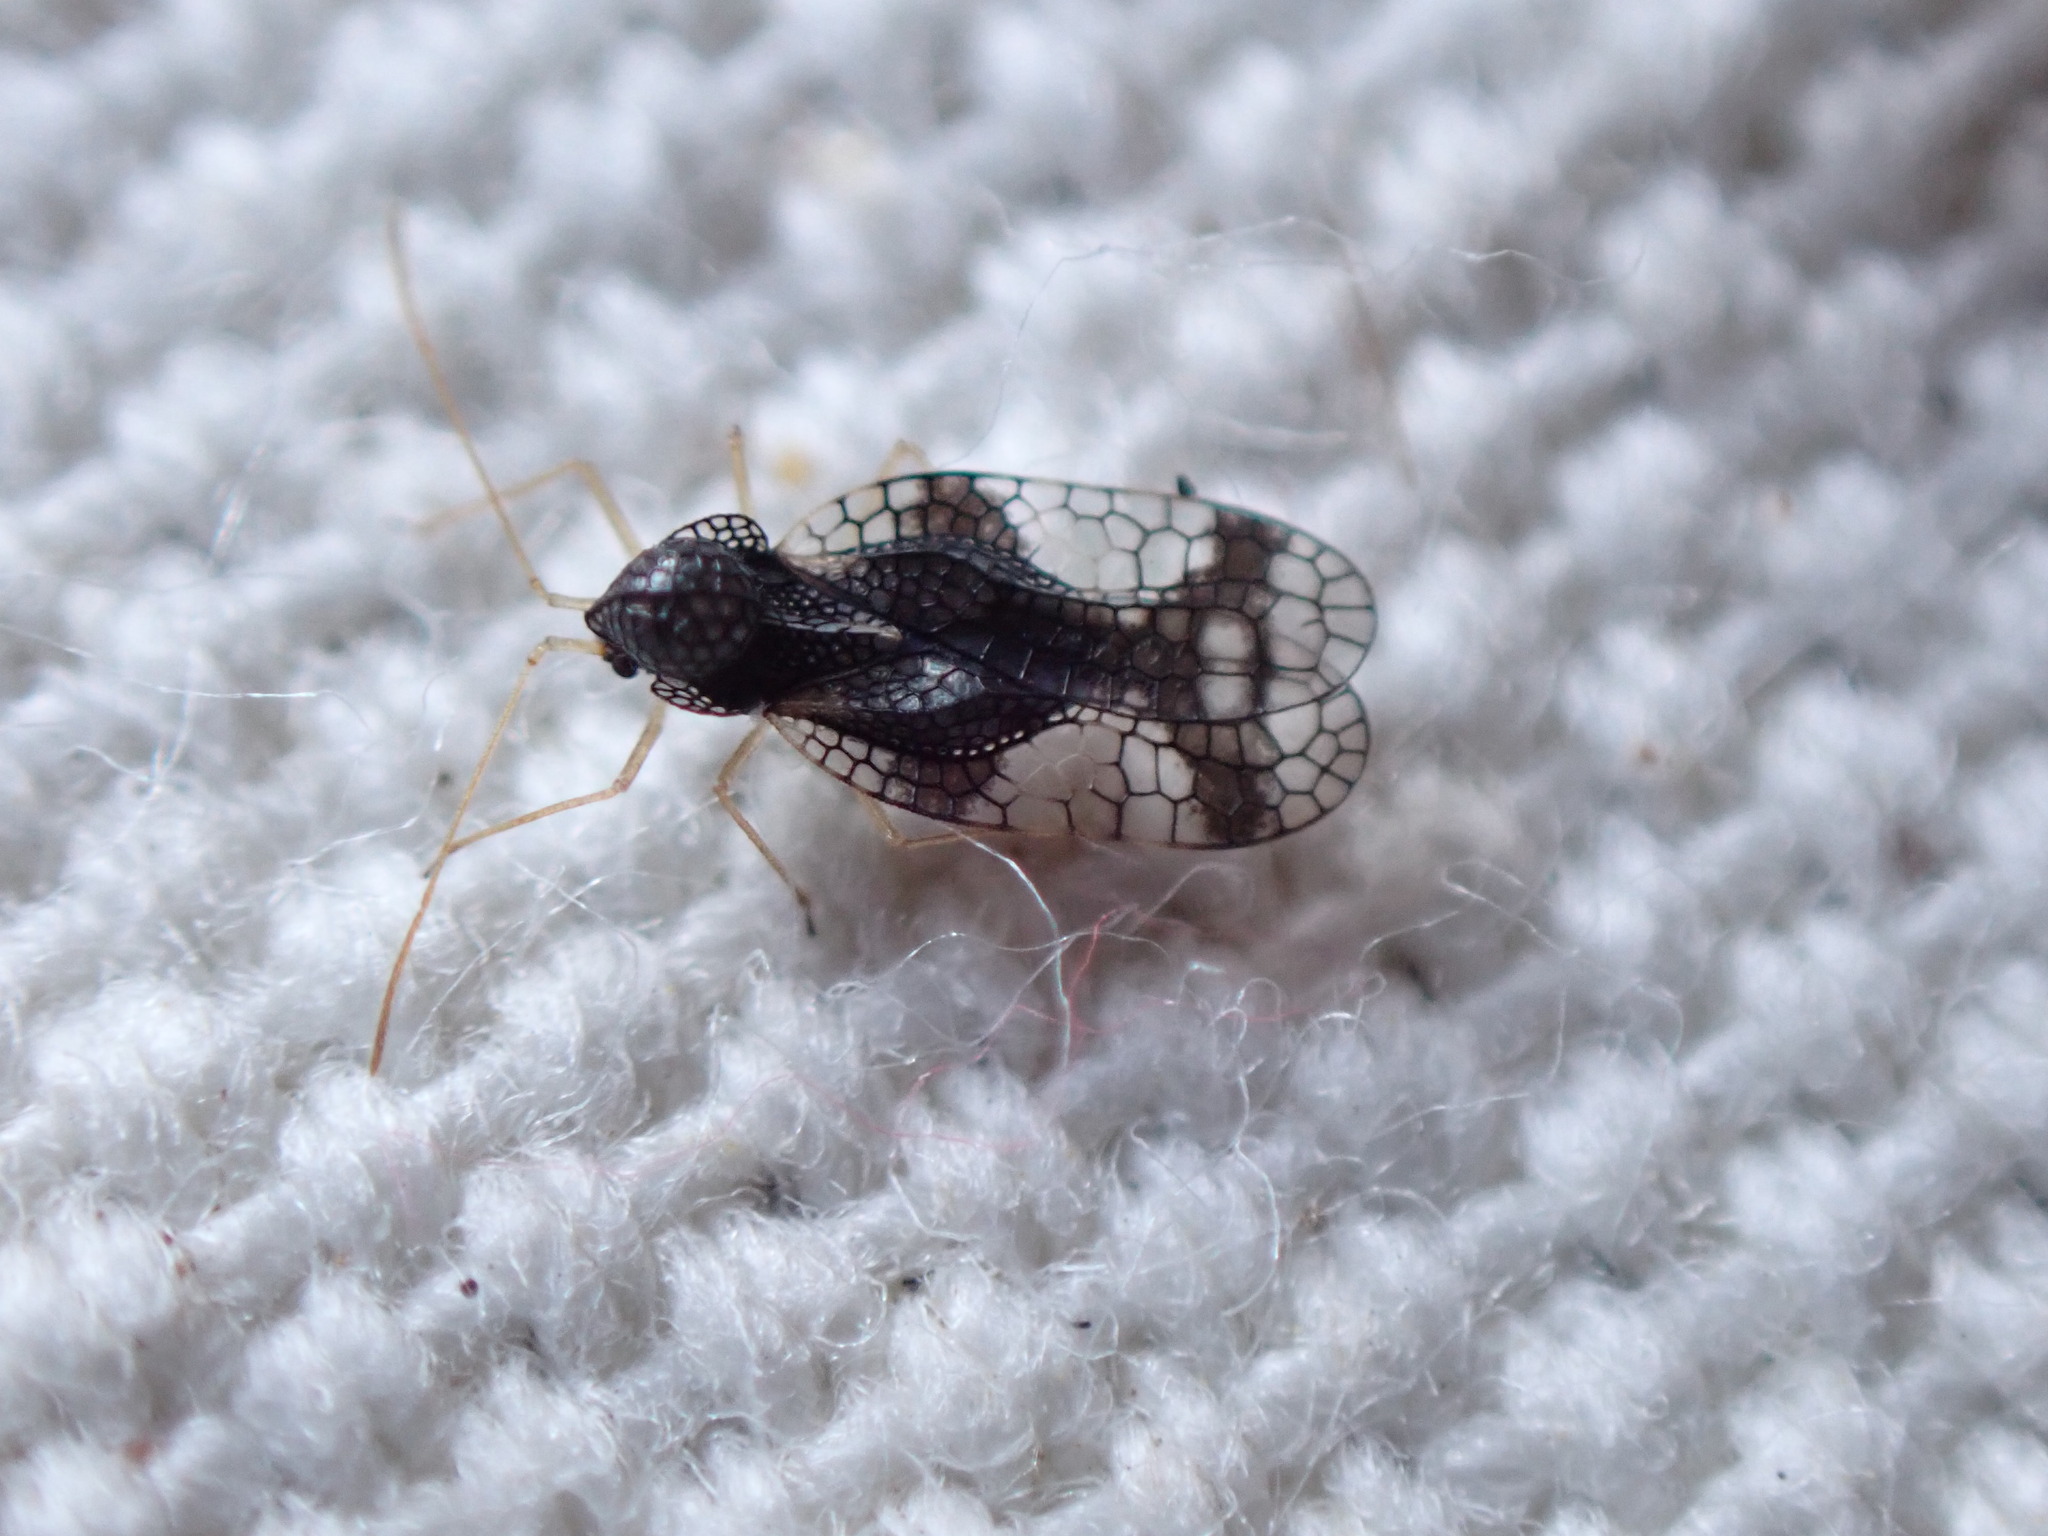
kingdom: Animalia
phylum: Arthropoda
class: Insecta
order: Hemiptera
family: Tingidae
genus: Stephanitis
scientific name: Stephanitis takeyai
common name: Andromeda lacebug
